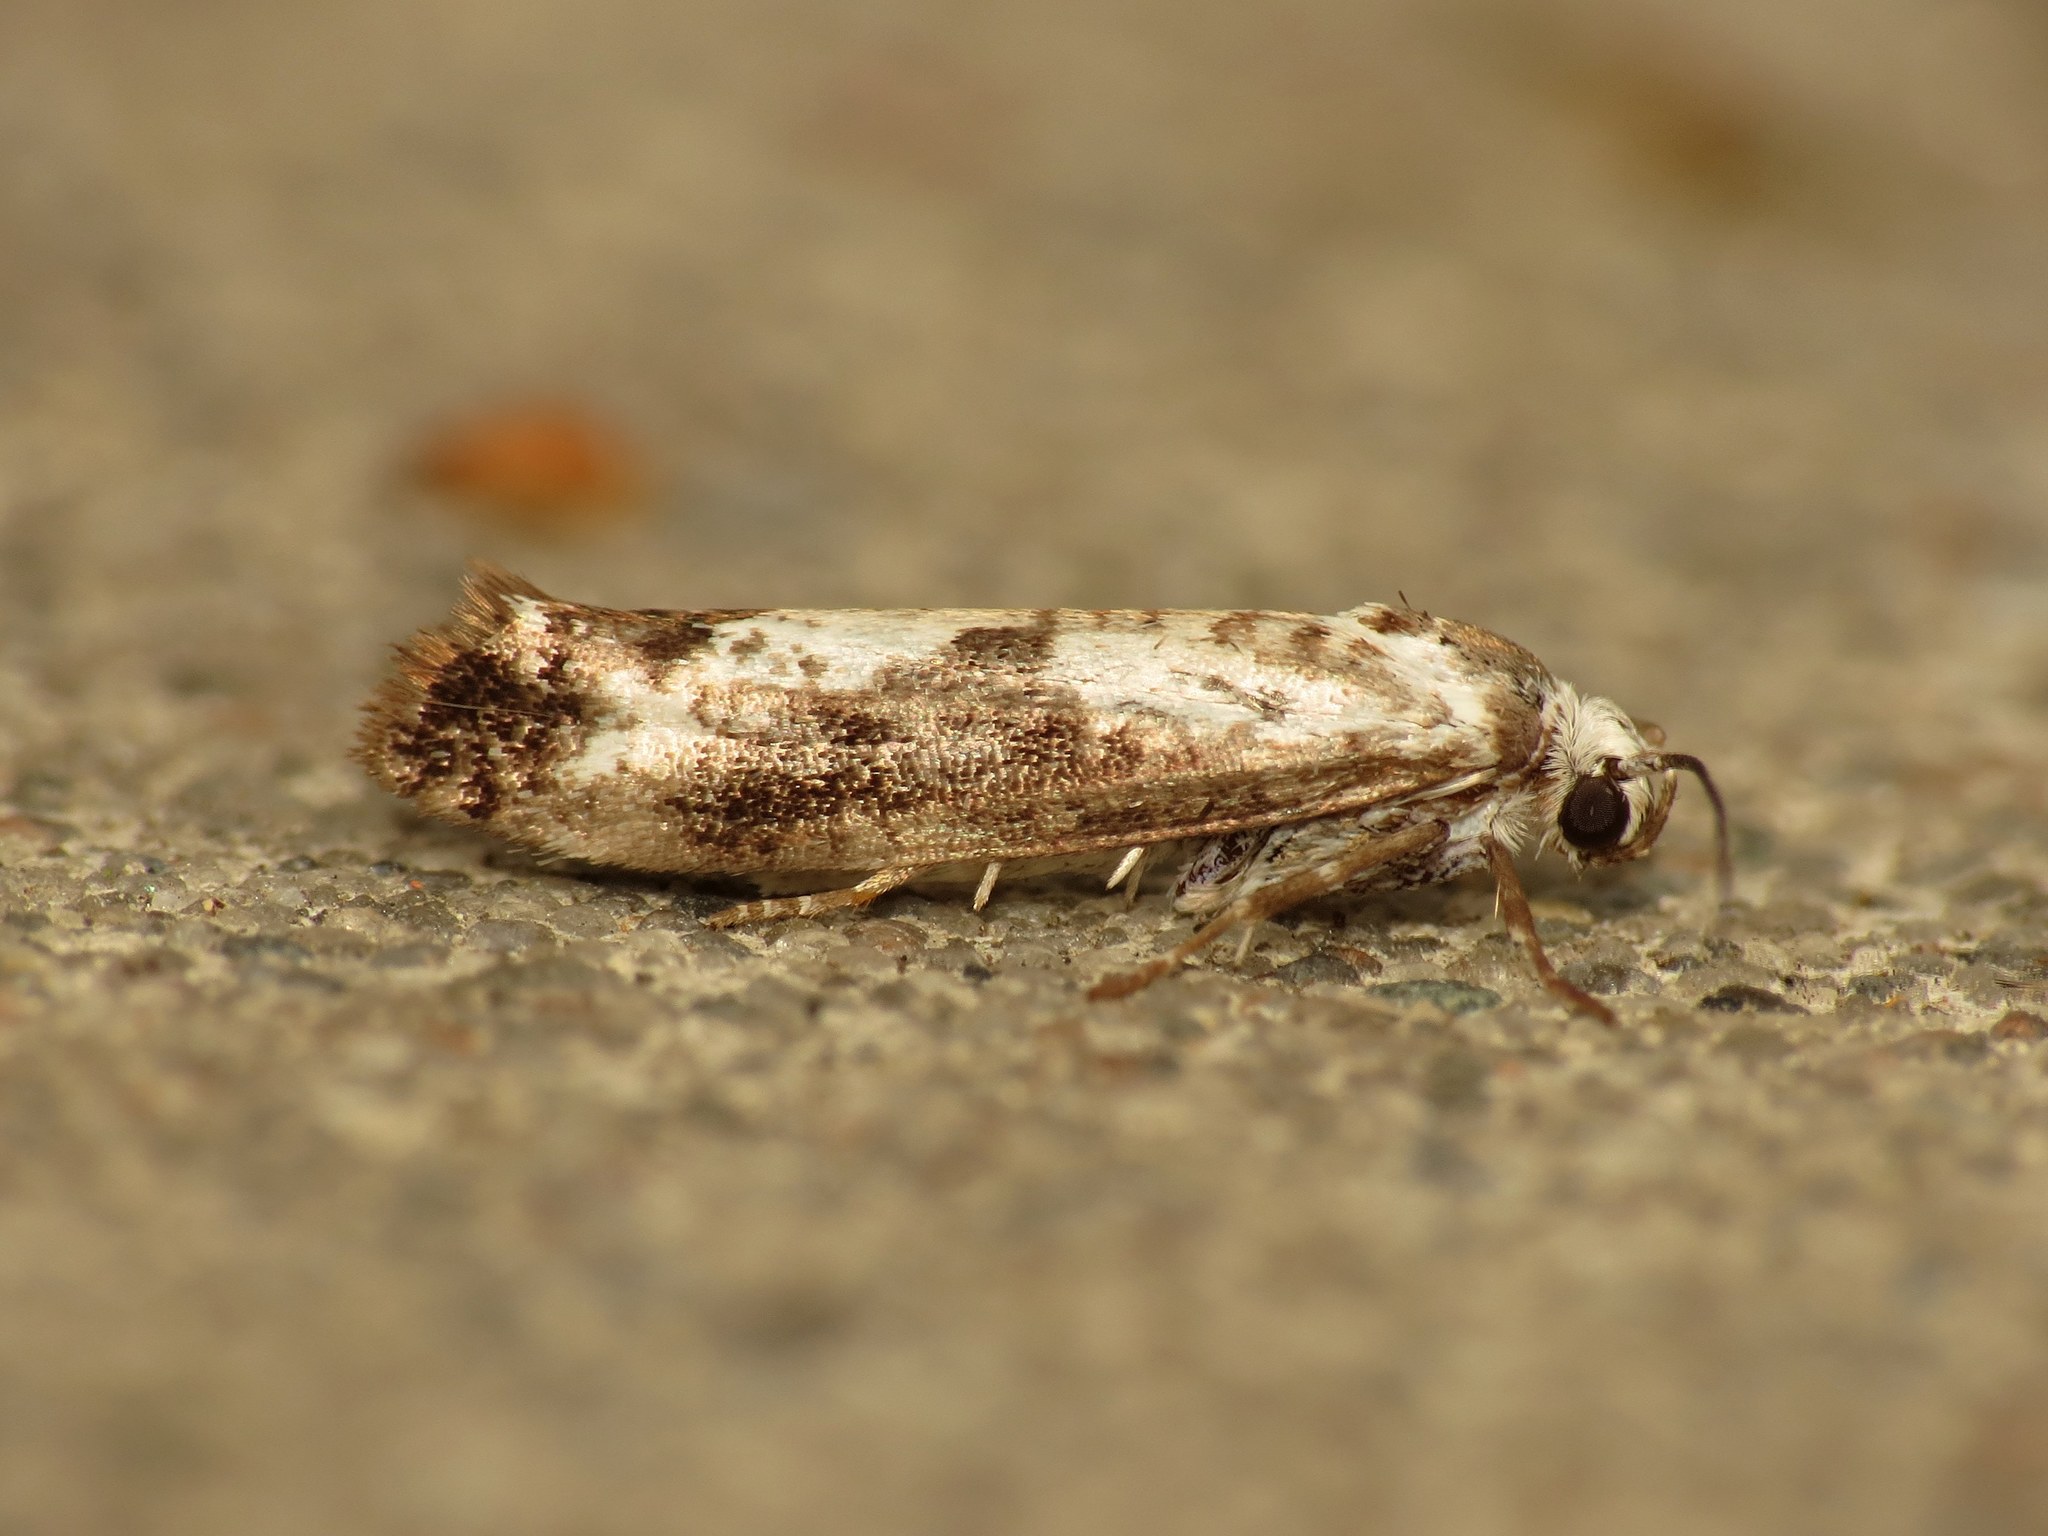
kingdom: Animalia
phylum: Arthropoda
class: Insecta
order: Lepidoptera
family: Praydidae
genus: Prays
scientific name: Prays fraxinella
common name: Ash bud moth
